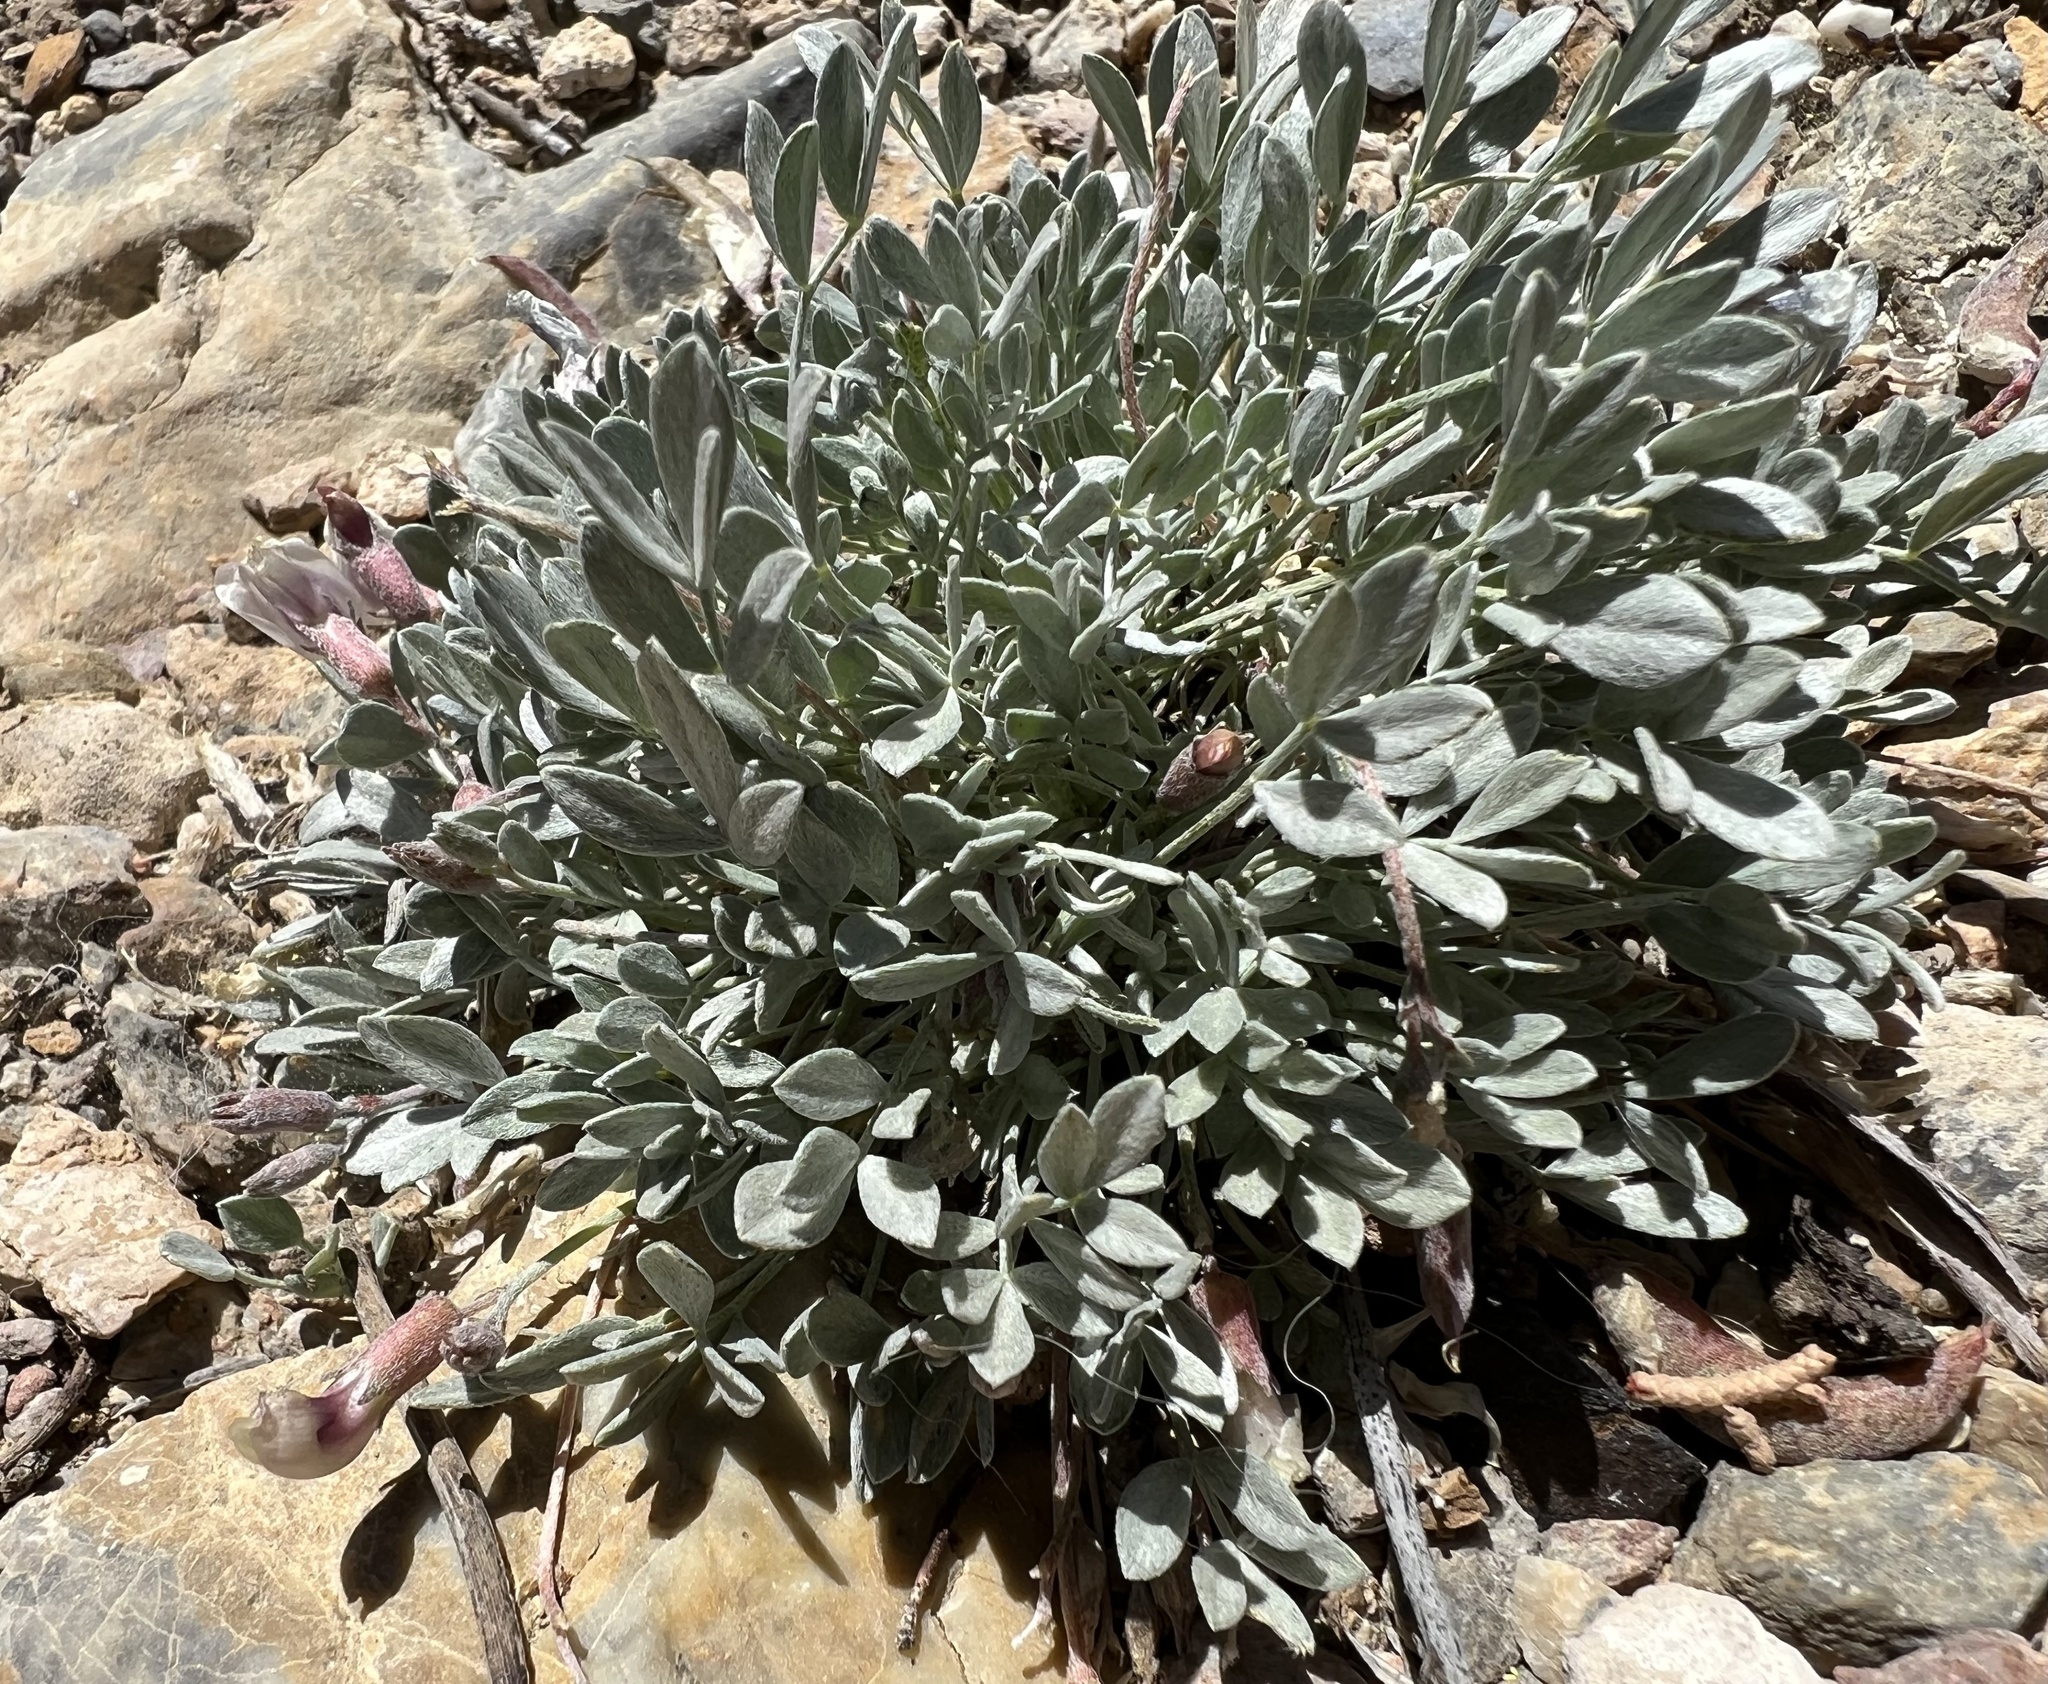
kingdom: Plantae
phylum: Tracheophyta
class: Magnoliopsida
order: Fabales
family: Fabaceae
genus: Astragalus
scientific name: Astragalus calycosus
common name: King's milkvetch
